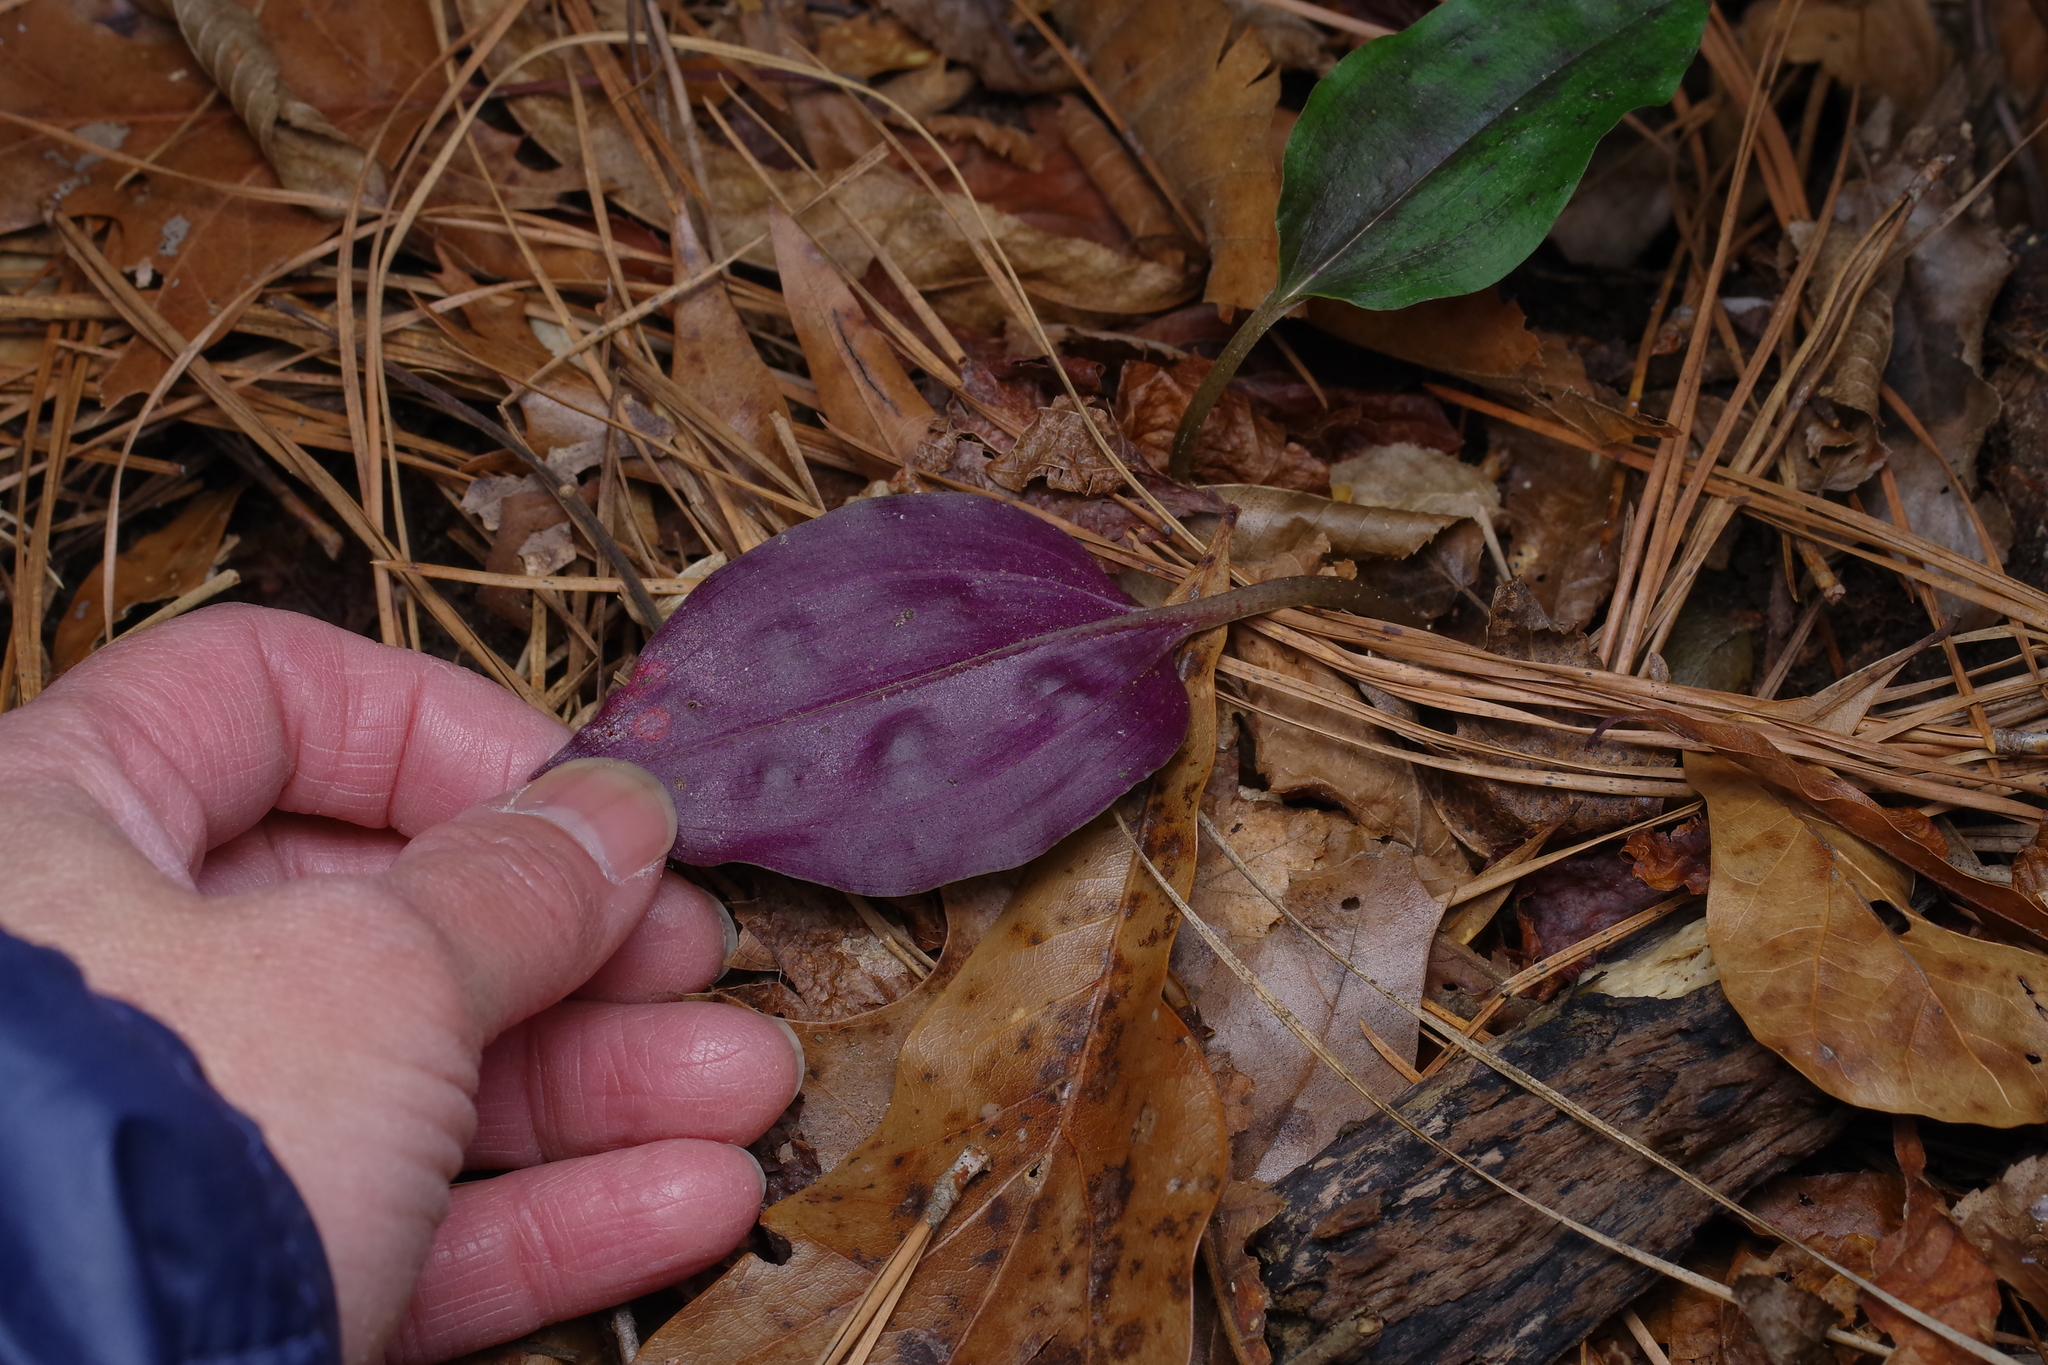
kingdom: Plantae
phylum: Tracheophyta
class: Liliopsida
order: Asparagales
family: Orchidaceae
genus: Tipularia
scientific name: Tipularia discolor
